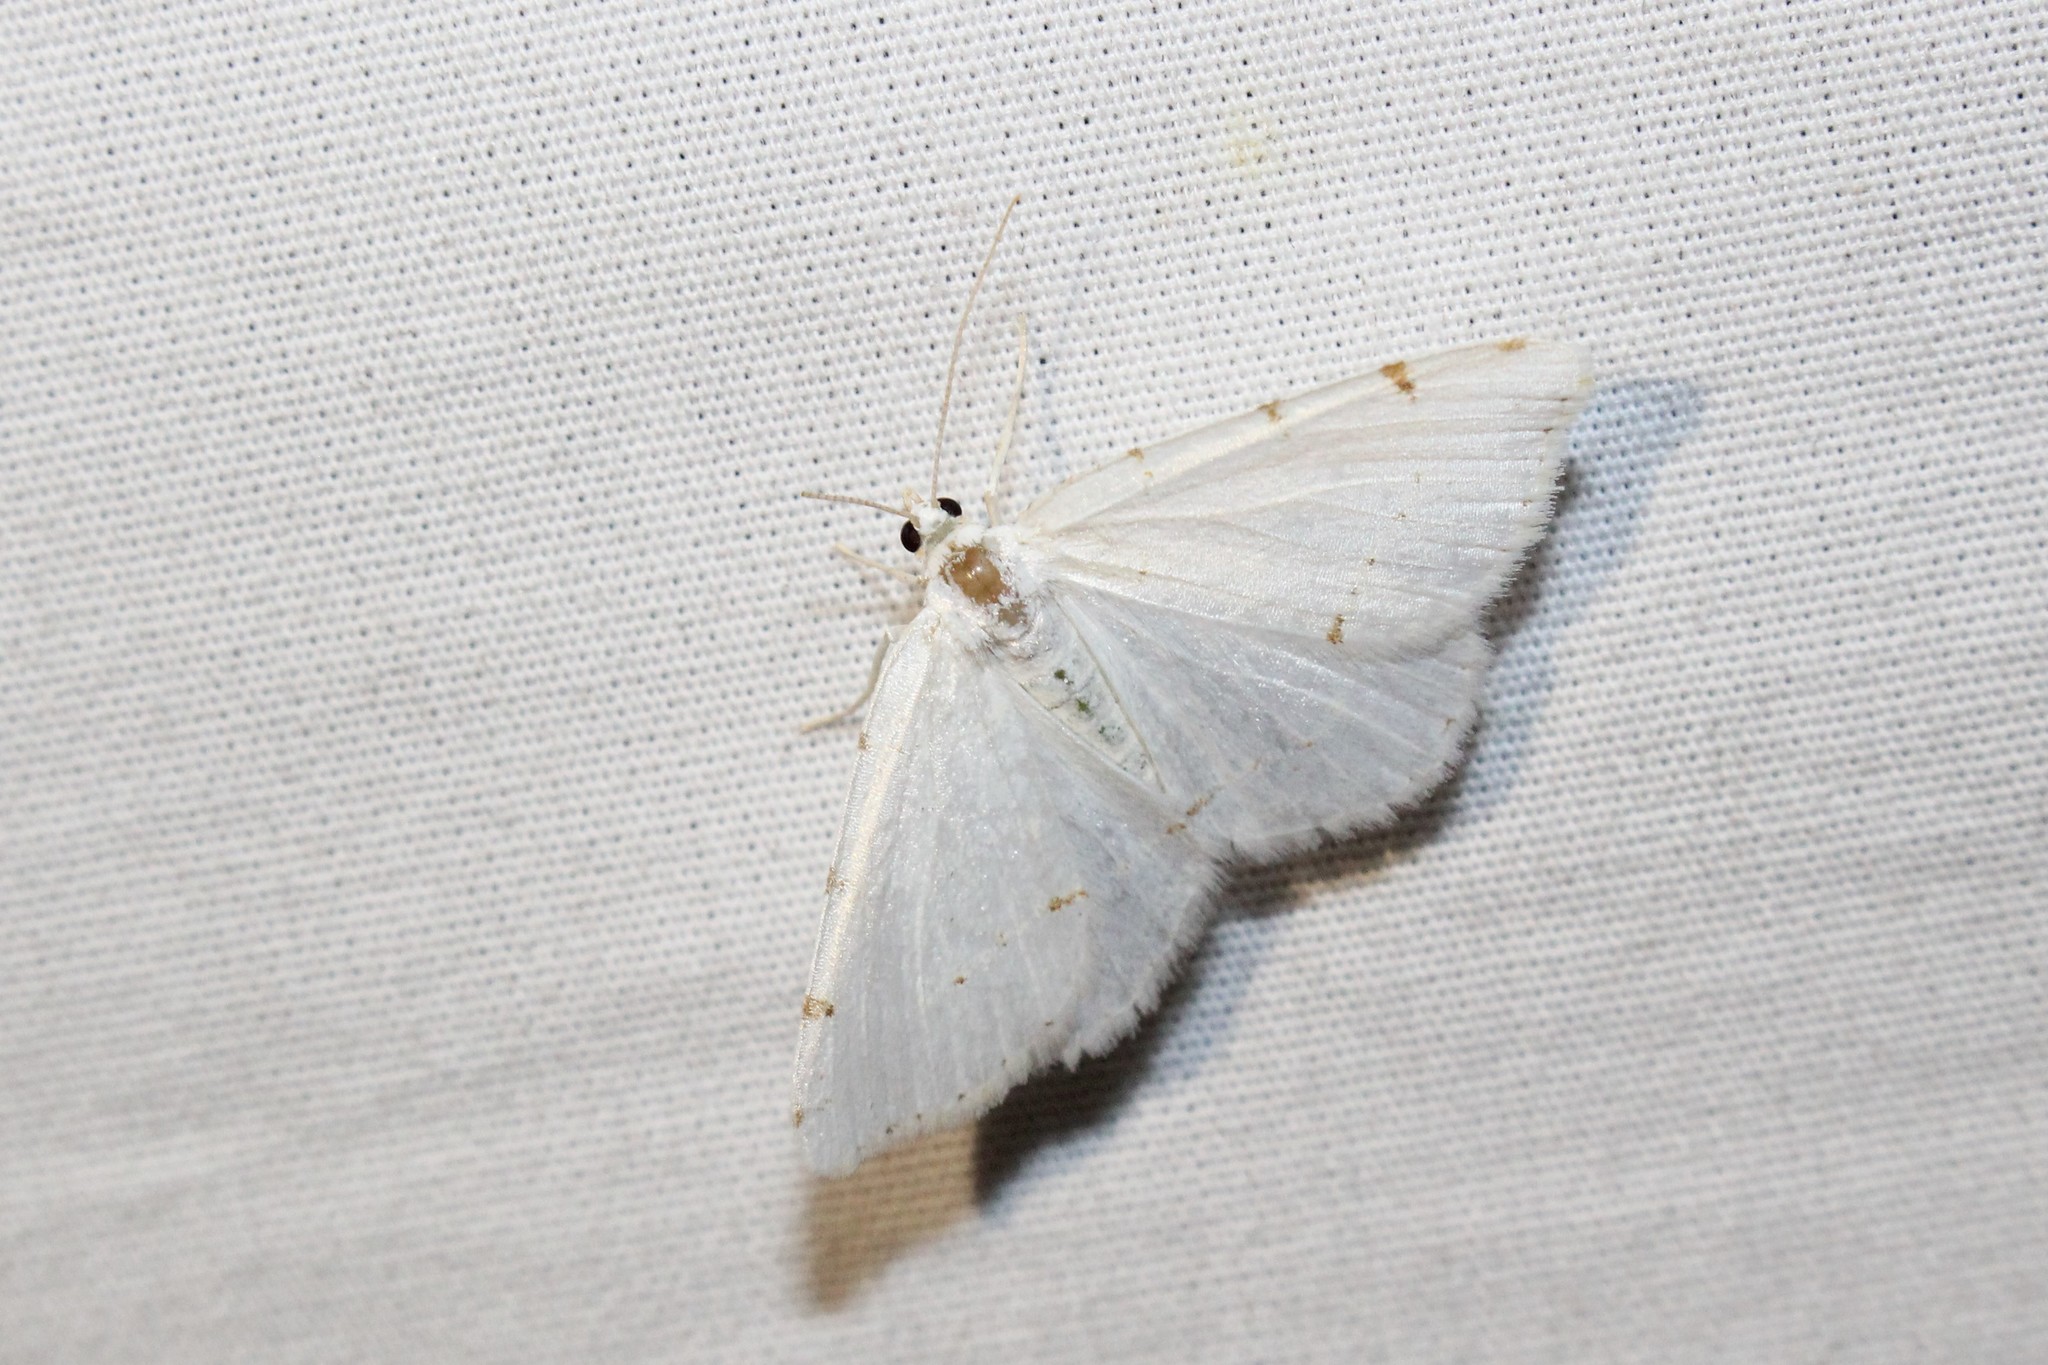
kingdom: Animalia
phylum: Arthropoda
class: Insecta
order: Lepidoptera
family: Geometridae
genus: Macaria
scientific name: Macaria pustularia
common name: Lesser maple spanworm moth
